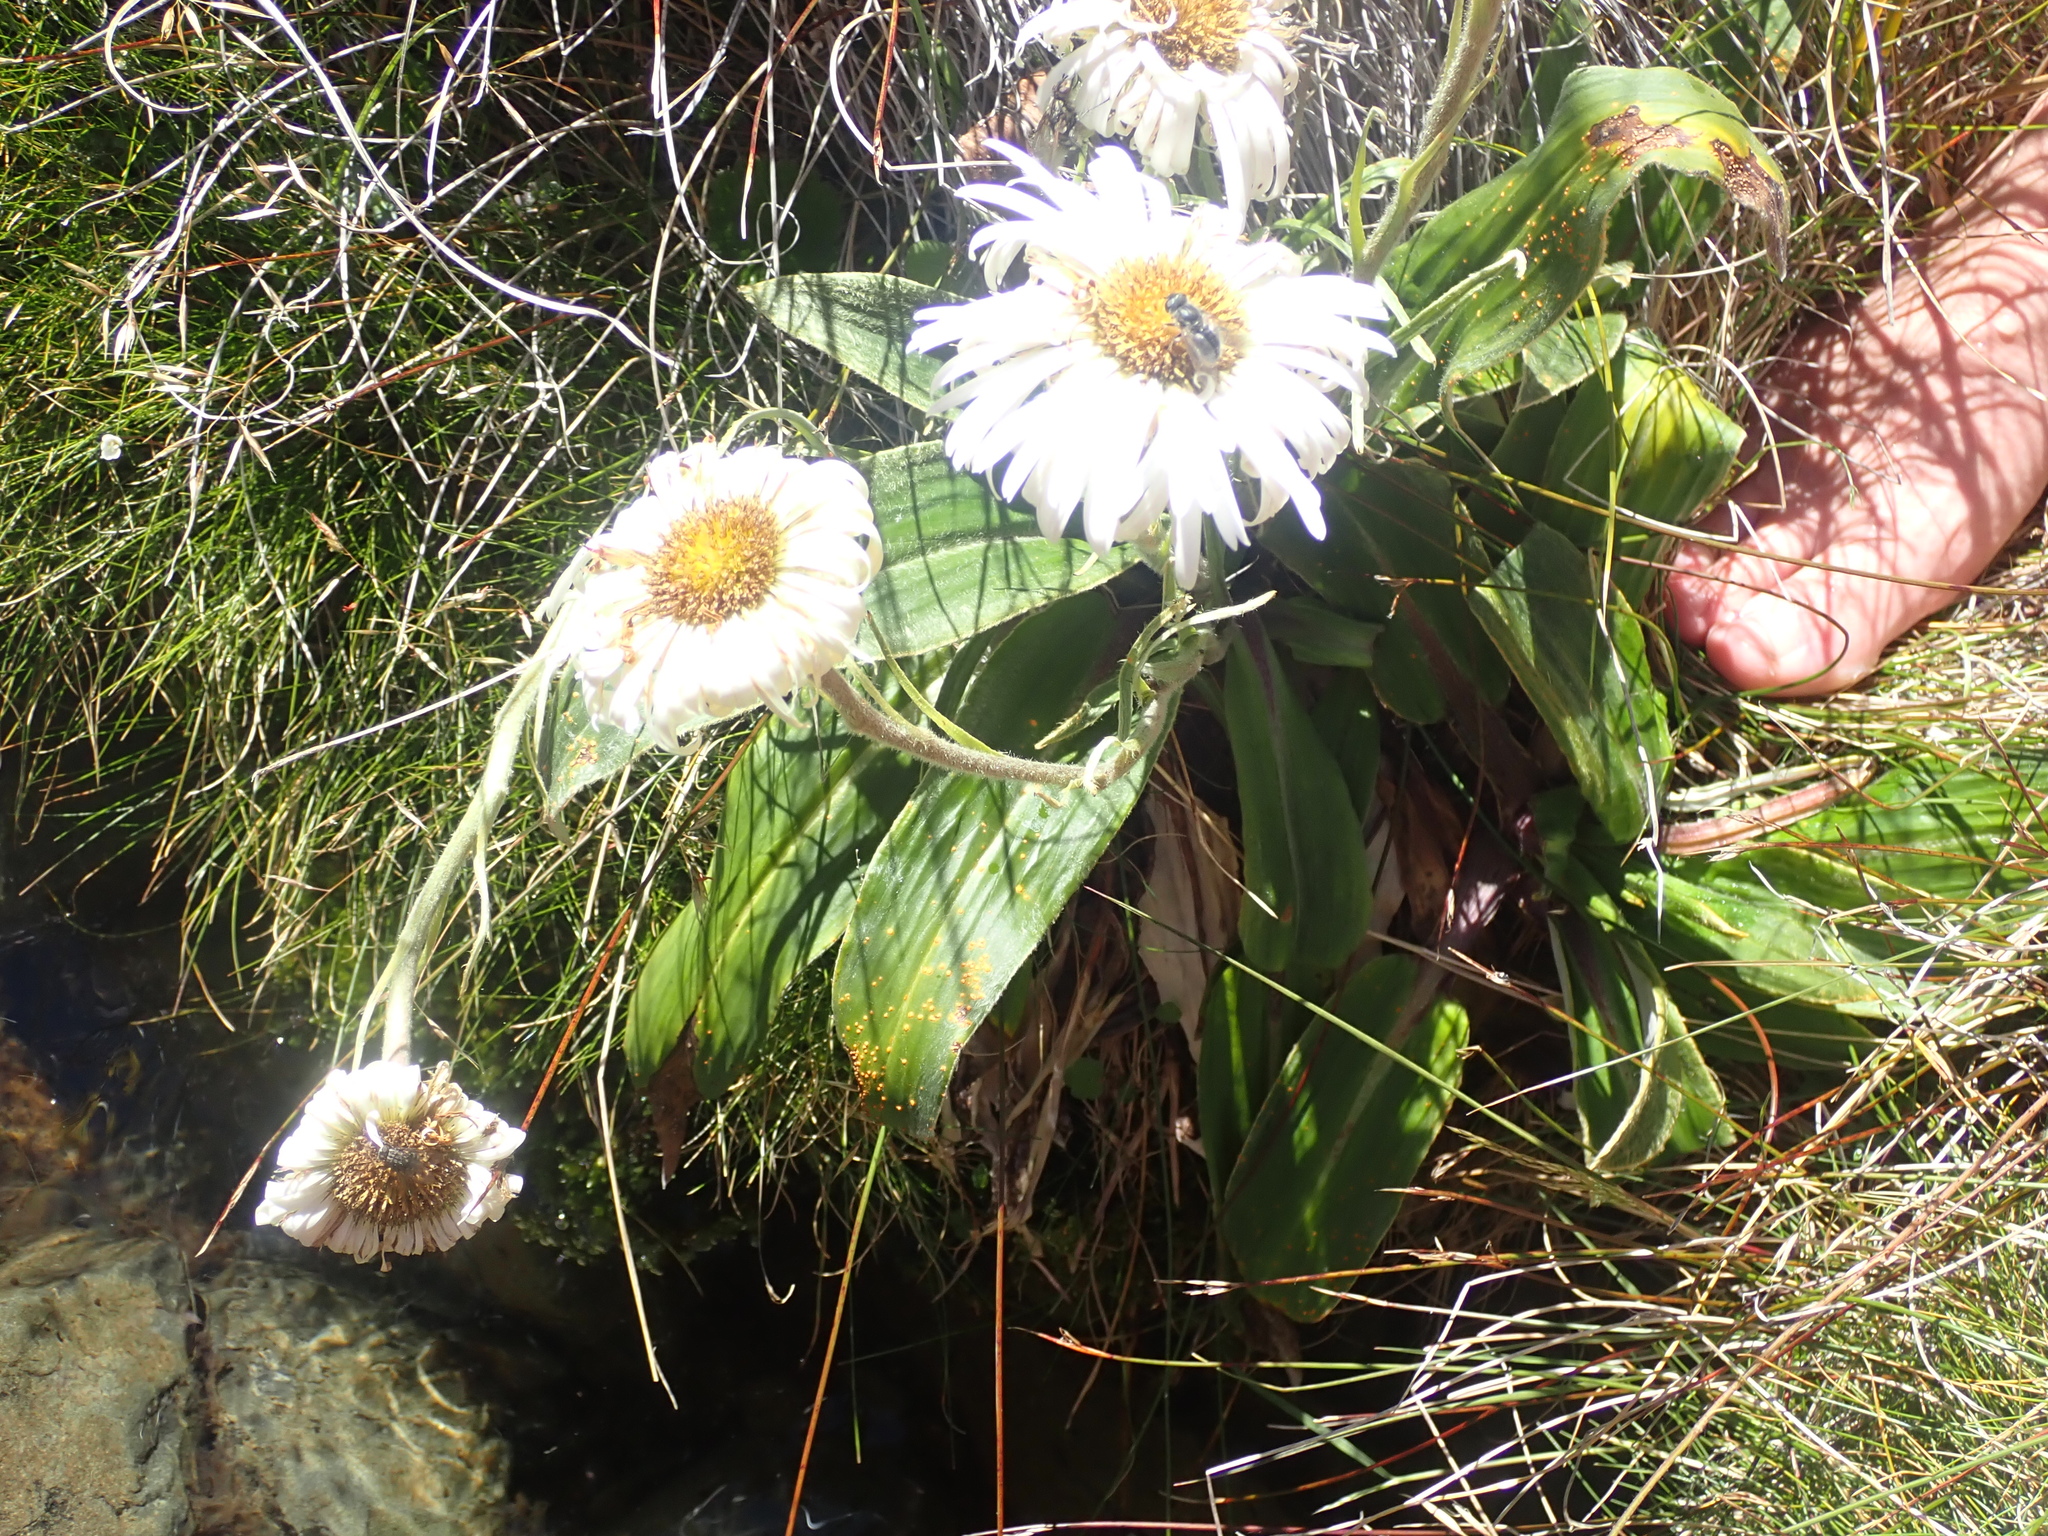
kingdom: Plantae
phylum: Tracheophyta
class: Magnoliopsida
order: Asterales
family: Asteraceae
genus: Celmisia
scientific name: Celmisia verbascifolia
